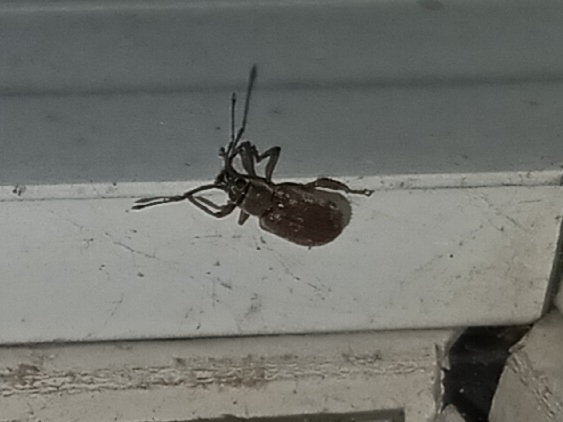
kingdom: Animalia
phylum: Arthropoda
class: Insecta
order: Coleoptera
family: Curculionidae
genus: Cyrtepistomus
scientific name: Cyrtepistomus castaneus
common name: Weevil
